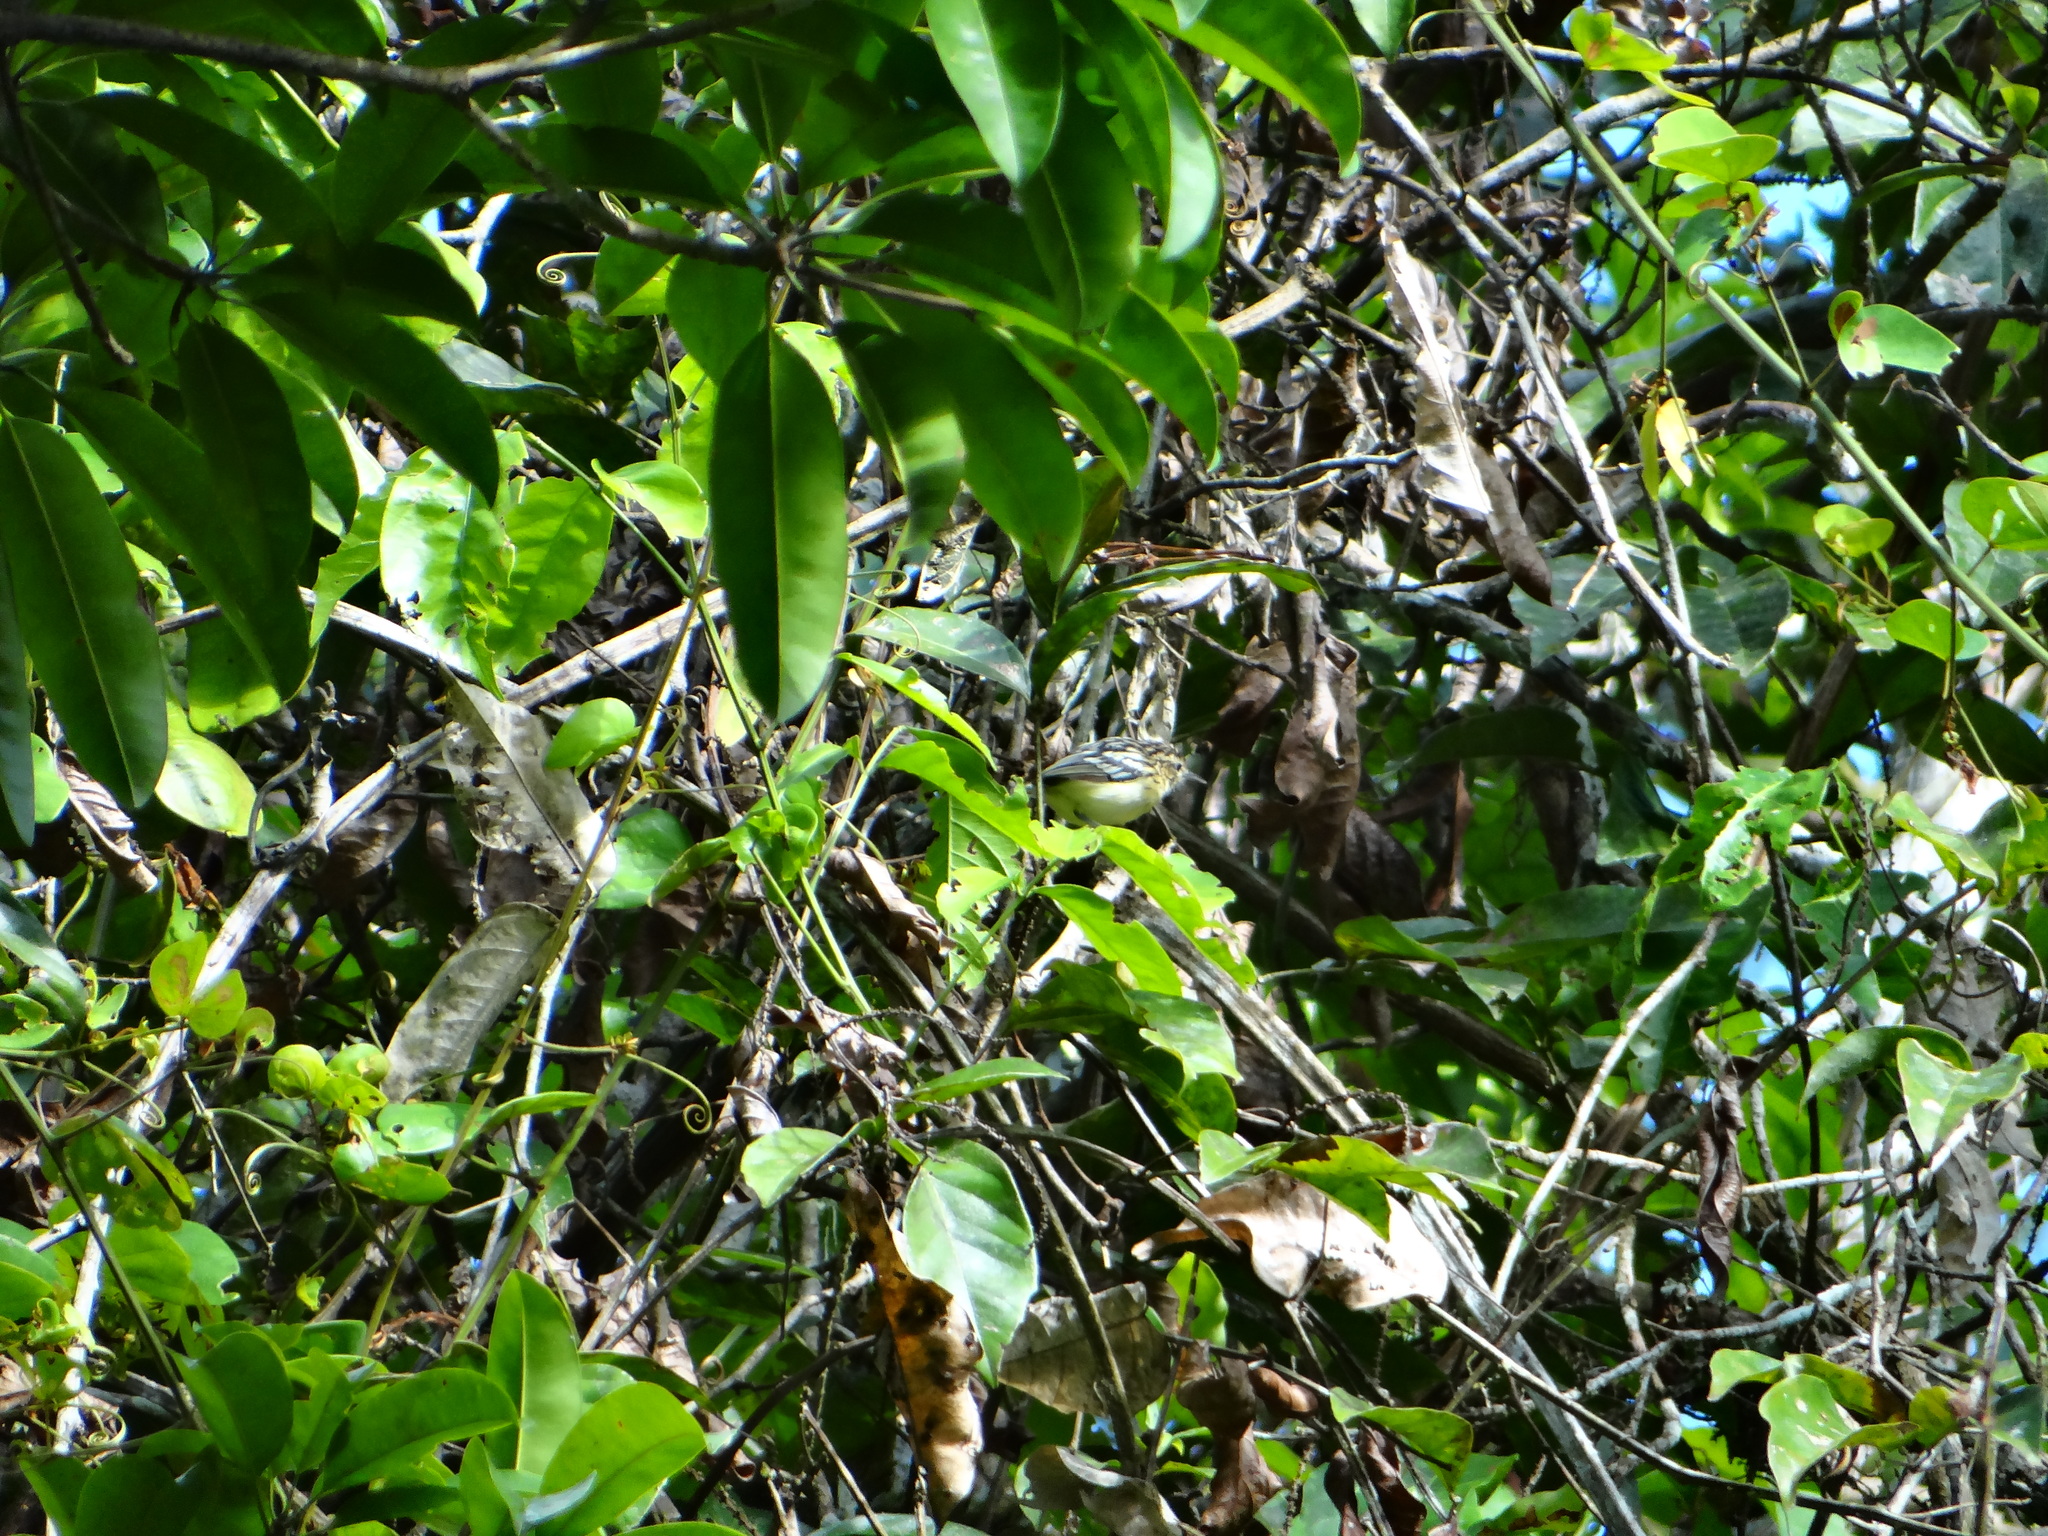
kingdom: Animalia
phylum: Chordata
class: Aves
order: Passeriformes
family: Thamnophilidae
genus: Myrmotherula
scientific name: Myrmotherula brachyura
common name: Pygmy antwren
